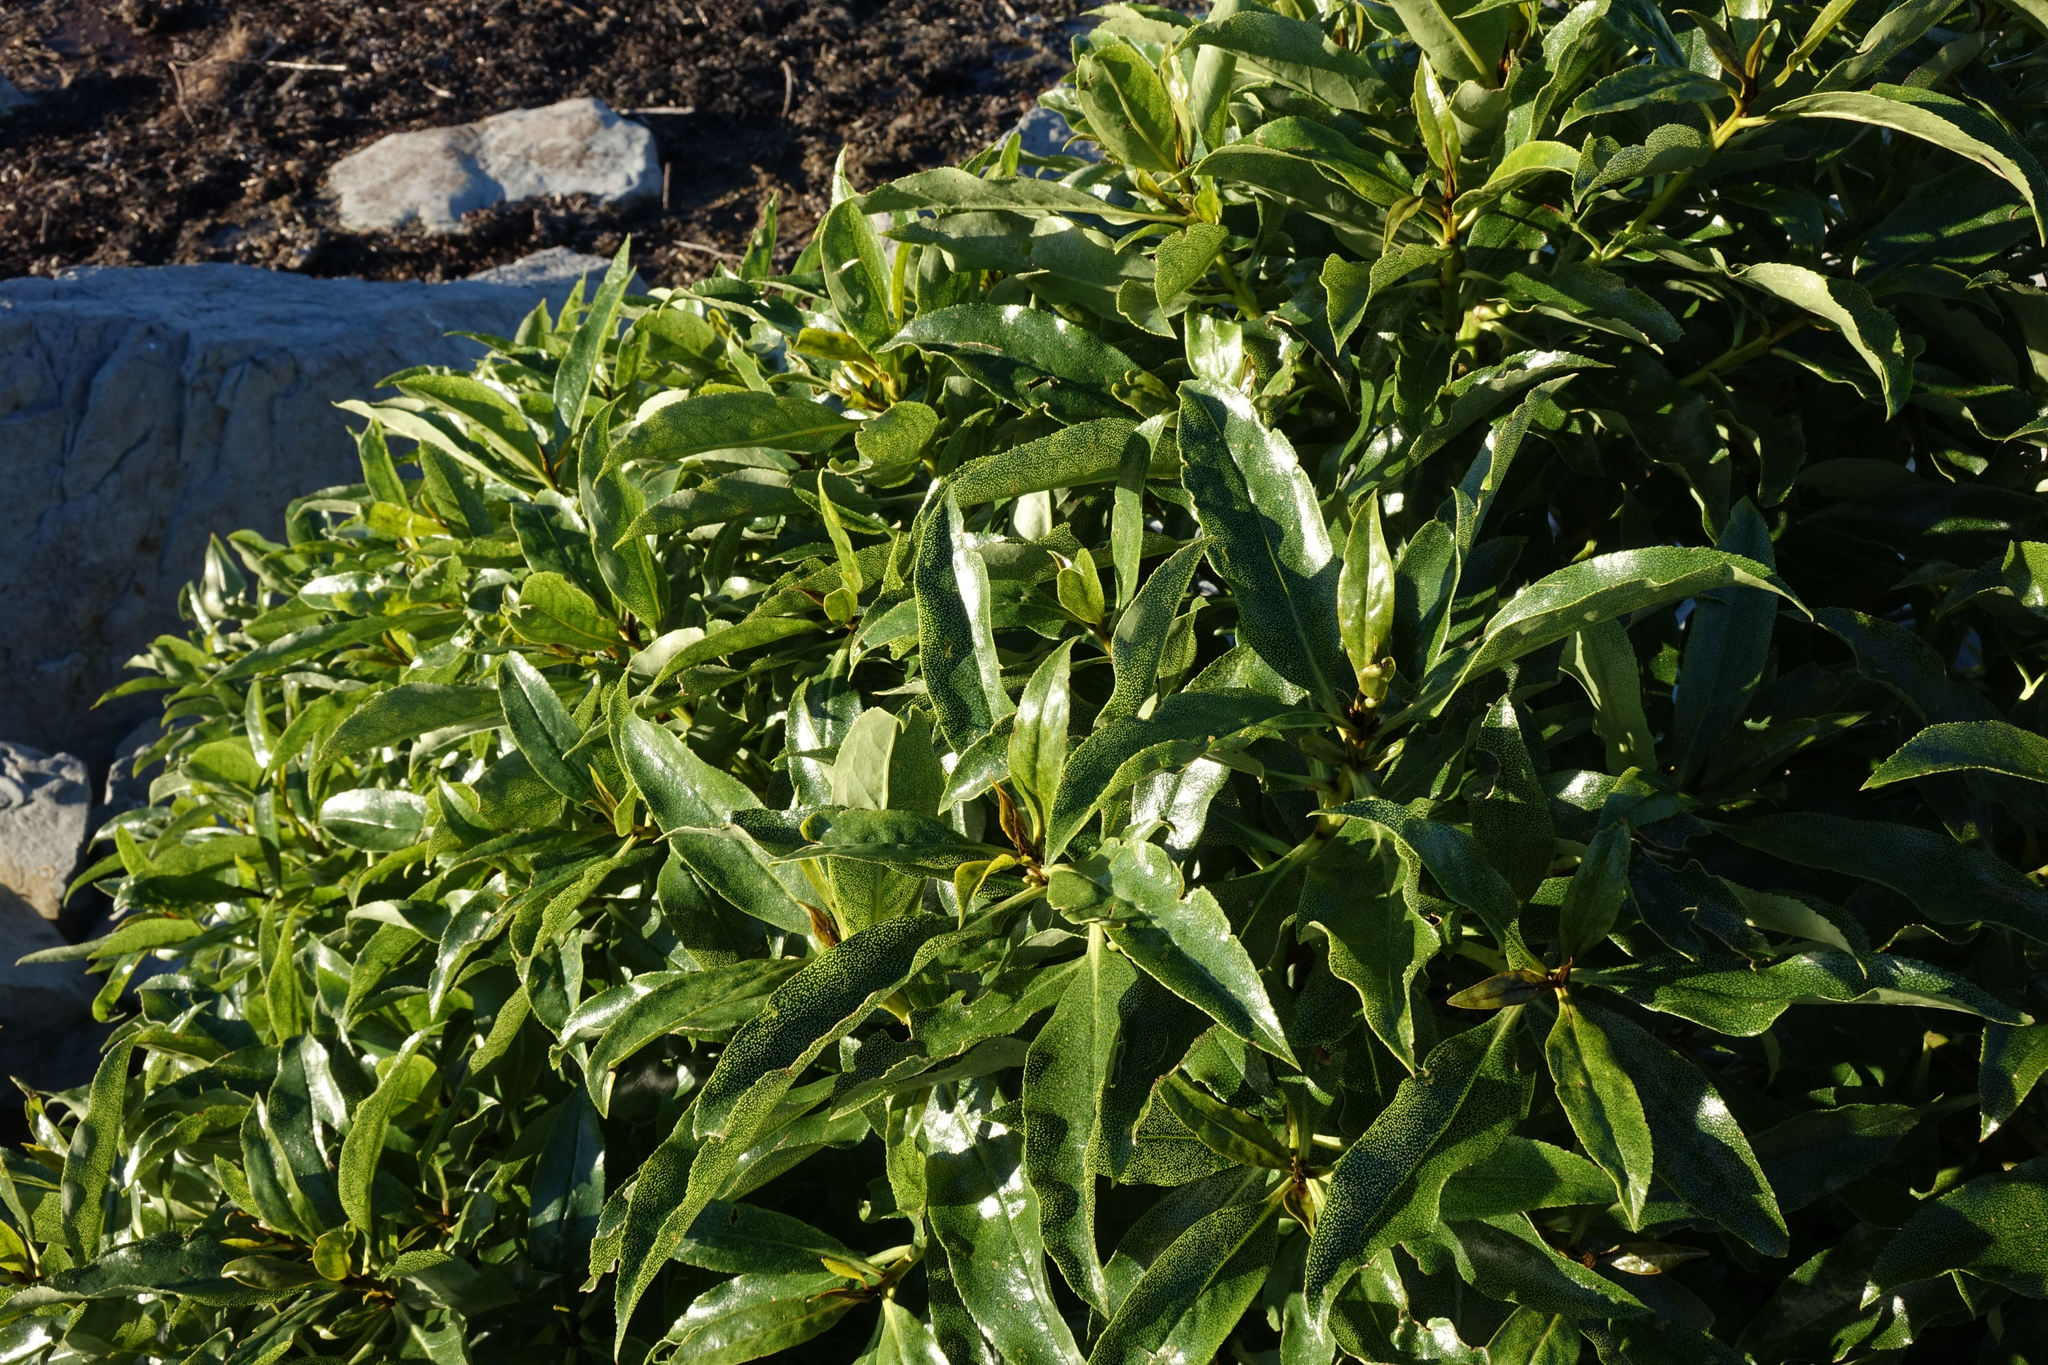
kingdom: Plantae
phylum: Tracheophyta
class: Magnoliopsida
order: Lamiales
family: Scrophulariaceae
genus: Myoporum
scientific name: Myoporum laetum
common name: Ngaio tree
